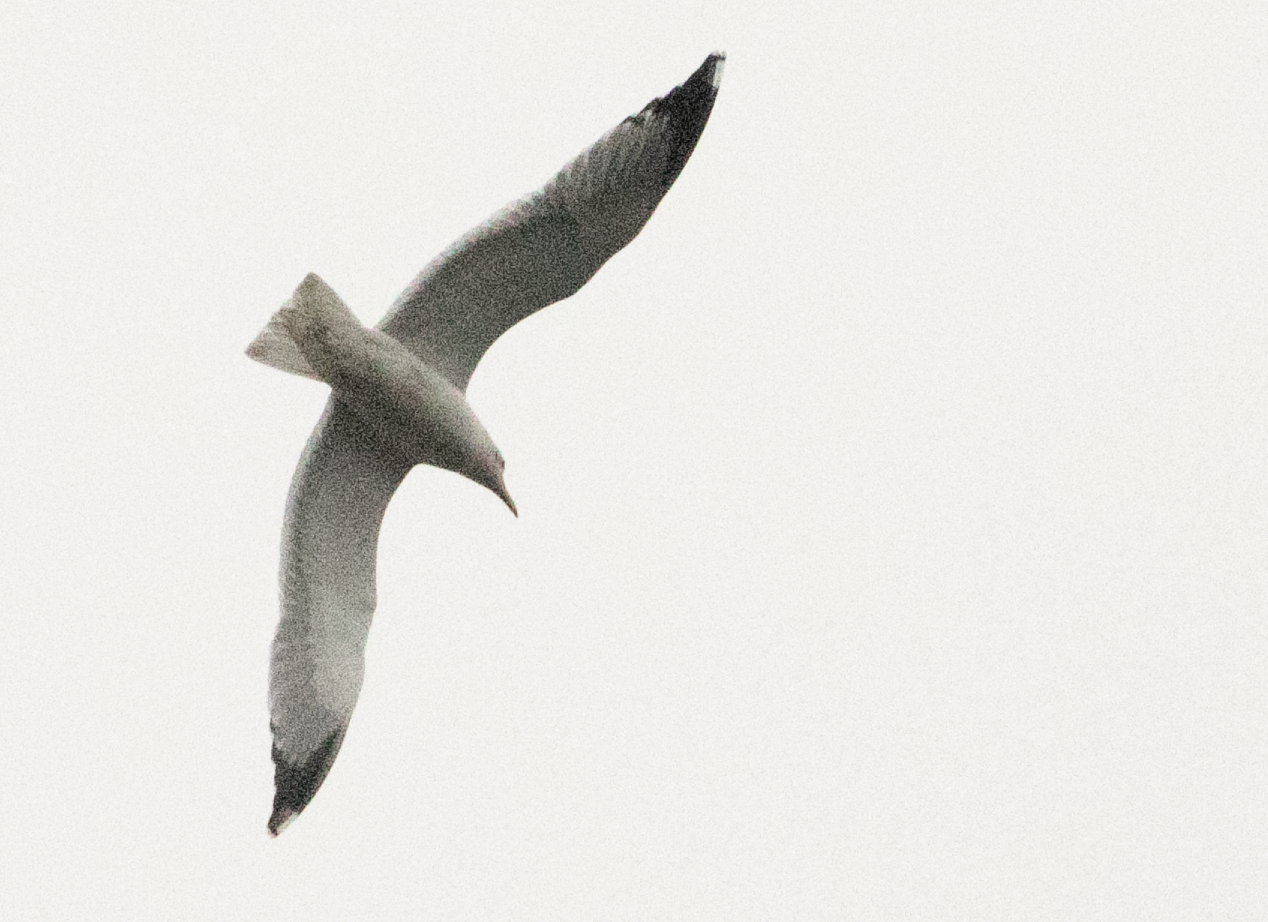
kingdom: Animalia
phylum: Chordata
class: Aves
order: Charadriiformes
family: Laridae
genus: Larus
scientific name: Larus michahellis
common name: Yellow-legged gull
